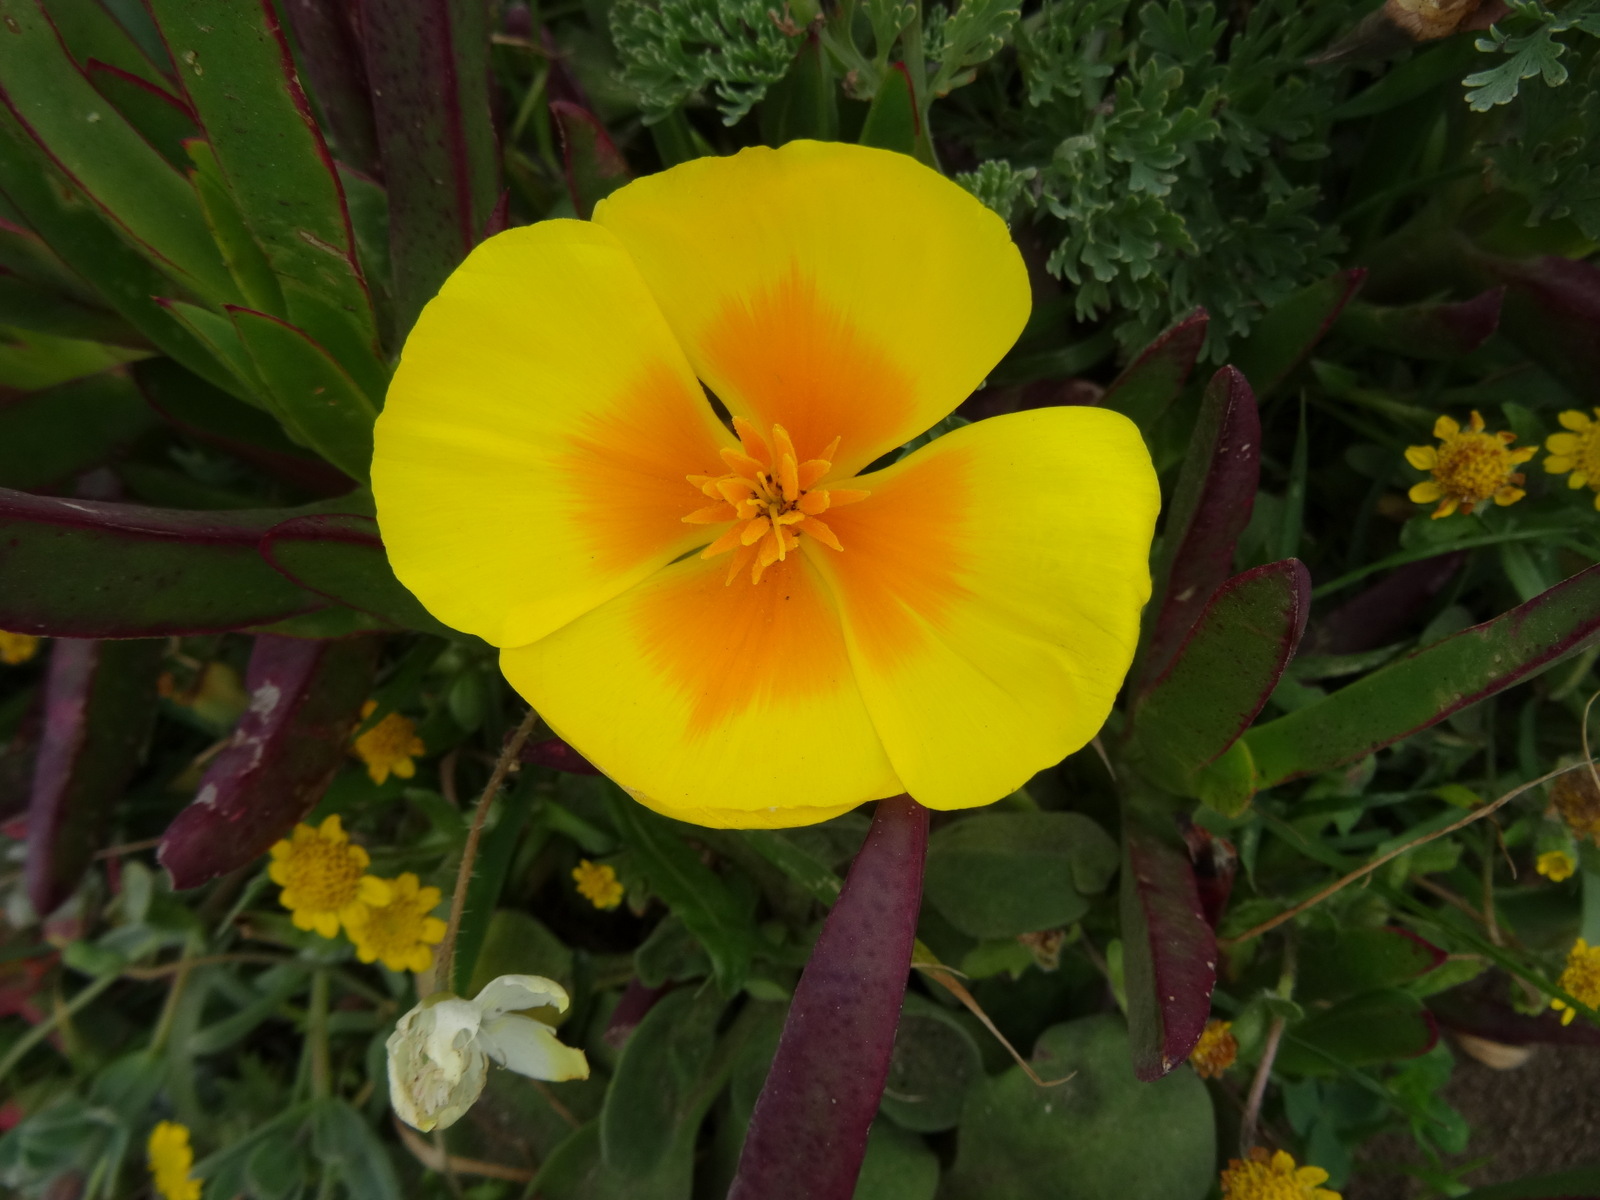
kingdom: Plantae
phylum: Tracheophyta
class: Magnoliopsida
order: Ranunculales
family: Papaveraceae
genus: Eschscholzia
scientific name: Eschscholzia californica
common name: California poppy
